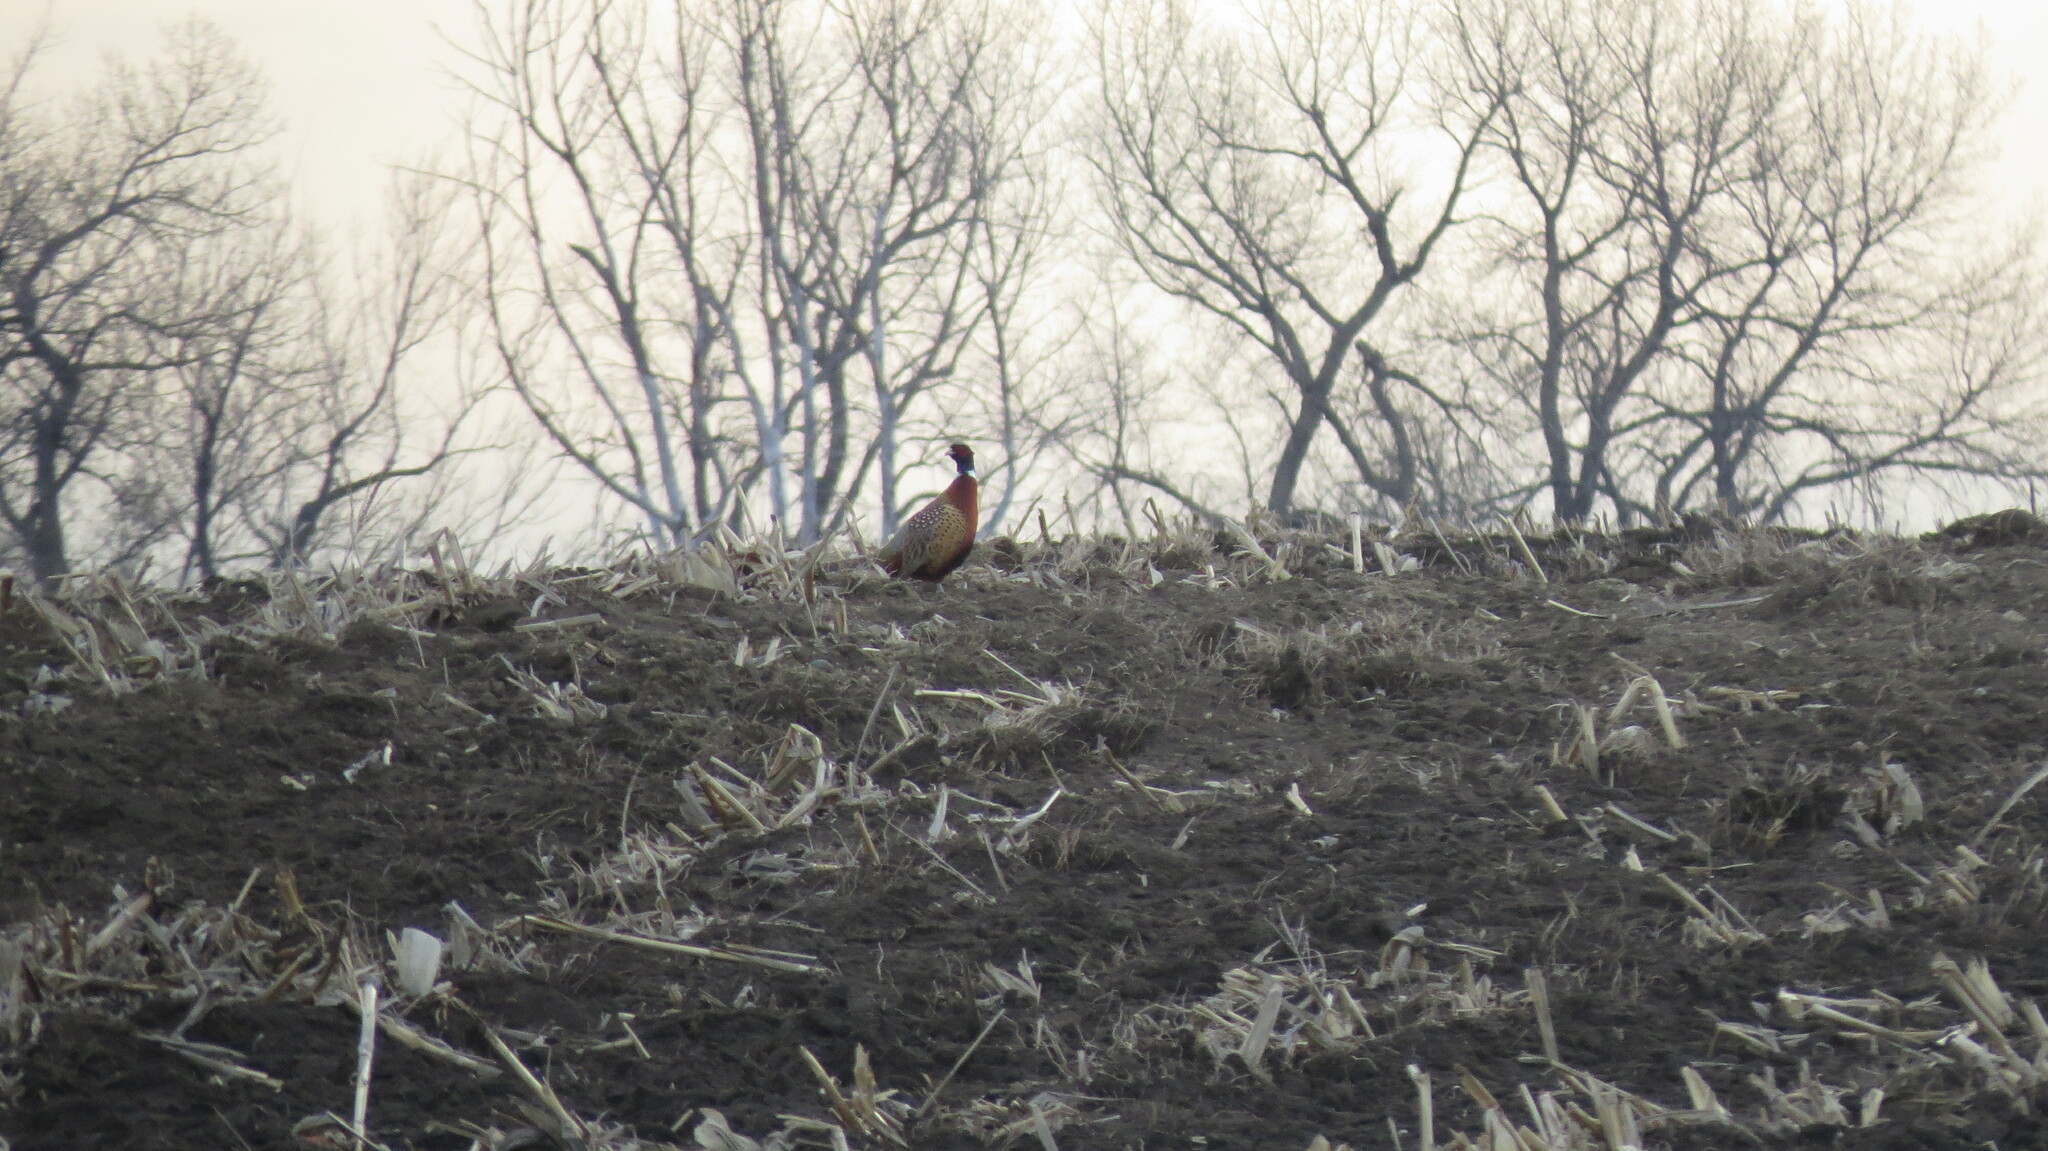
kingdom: Animalia
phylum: Chordata
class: Aves
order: Galliformes
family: Phasianidae
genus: Phasianus
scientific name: Phasianus colchicus
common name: Common pheasant
